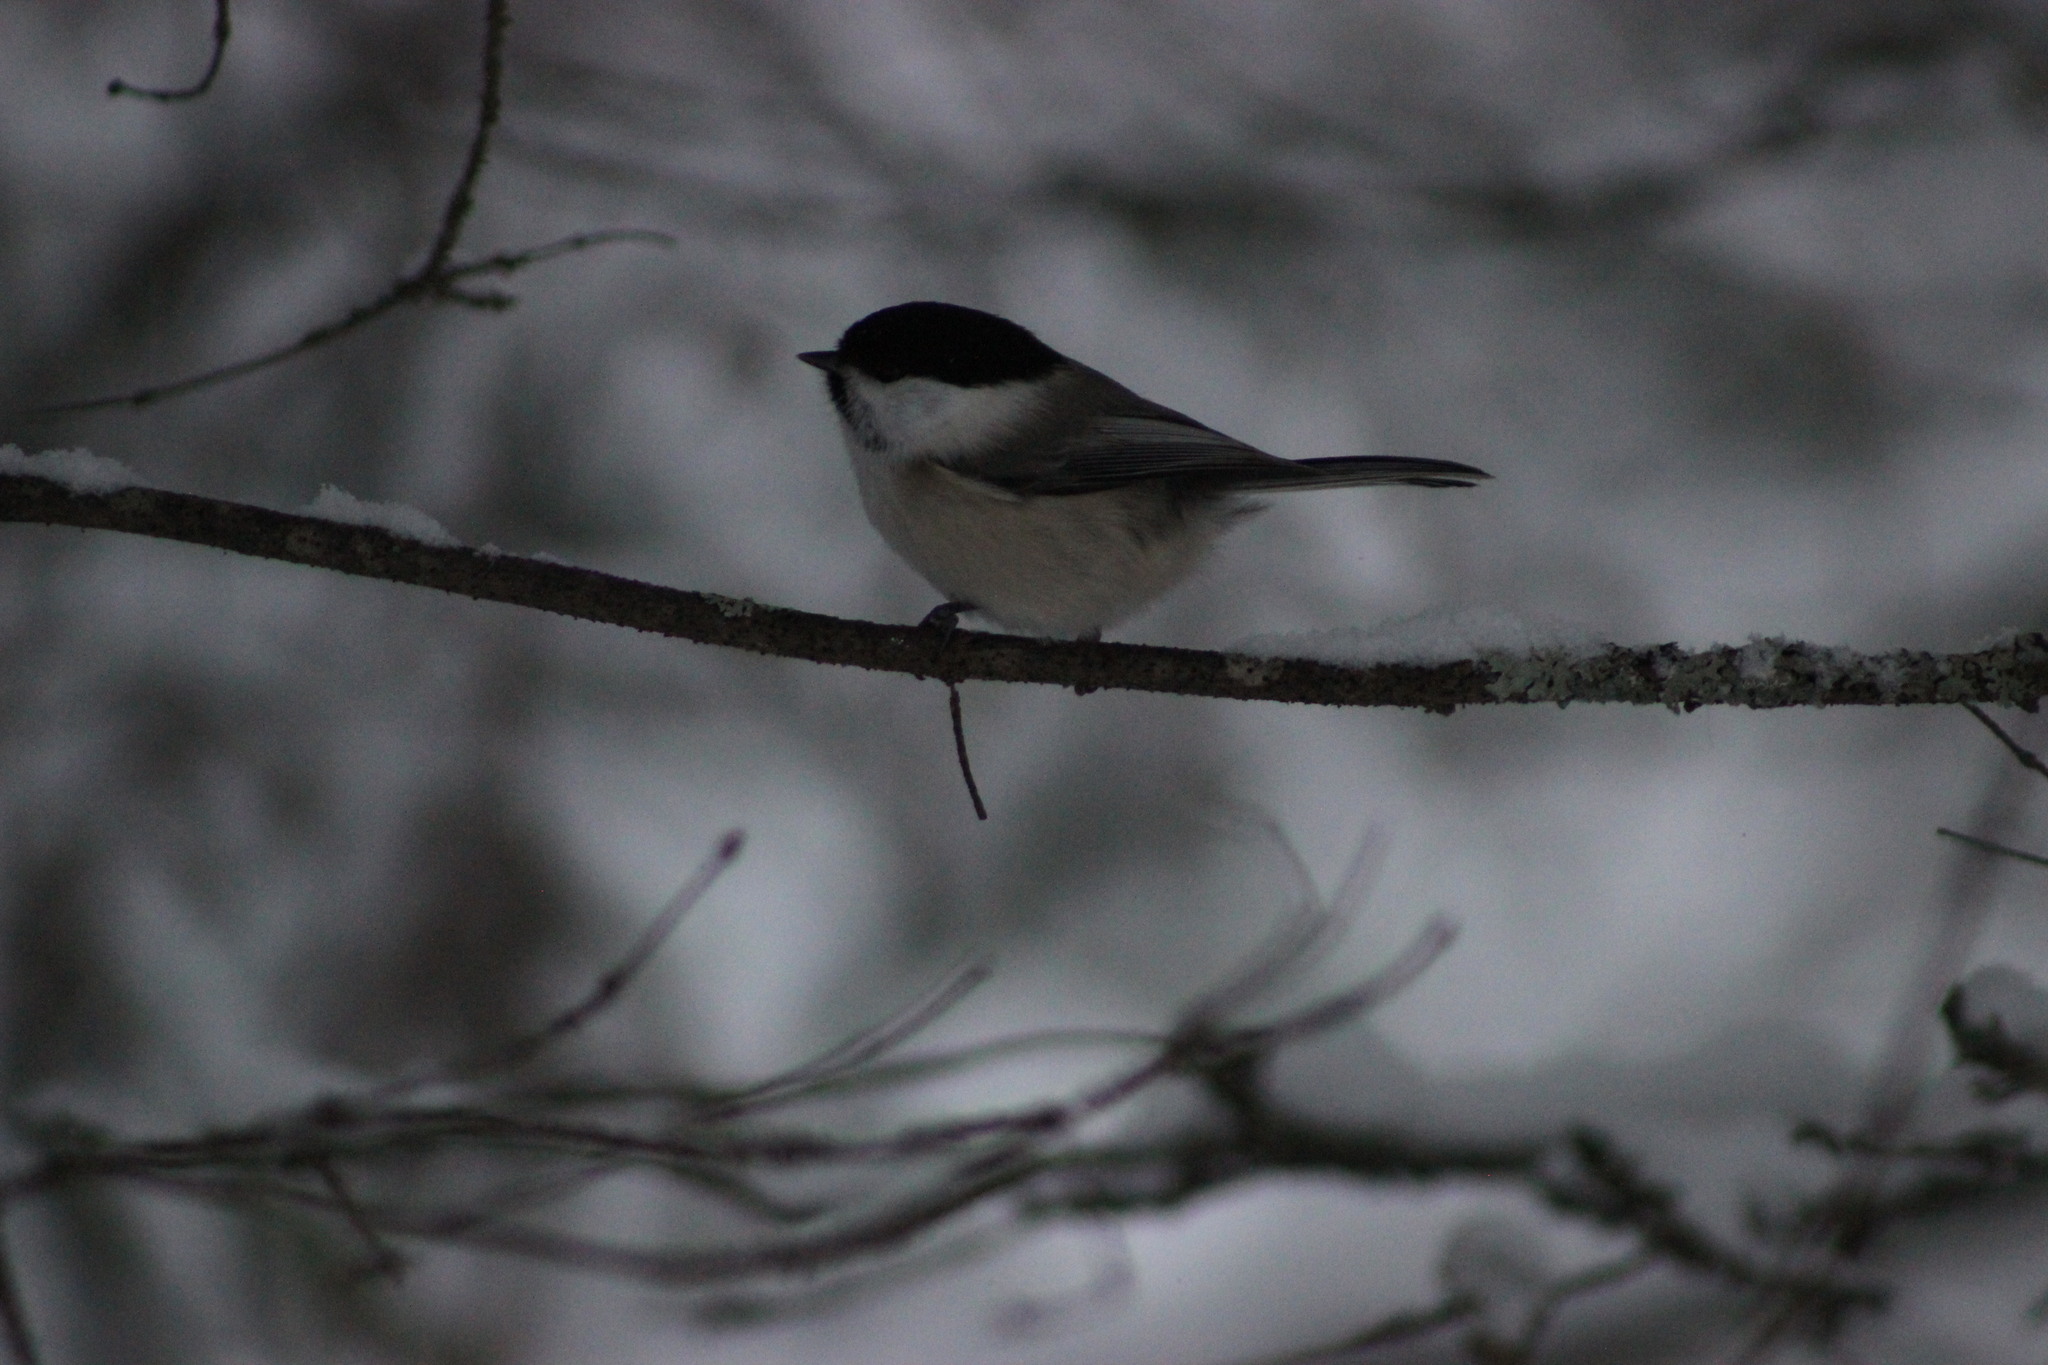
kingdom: Animalia
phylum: Chordata
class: Aves
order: Passeriformes
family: Paridae
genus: Poecile
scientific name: Poecile montanus
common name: Willow tit
